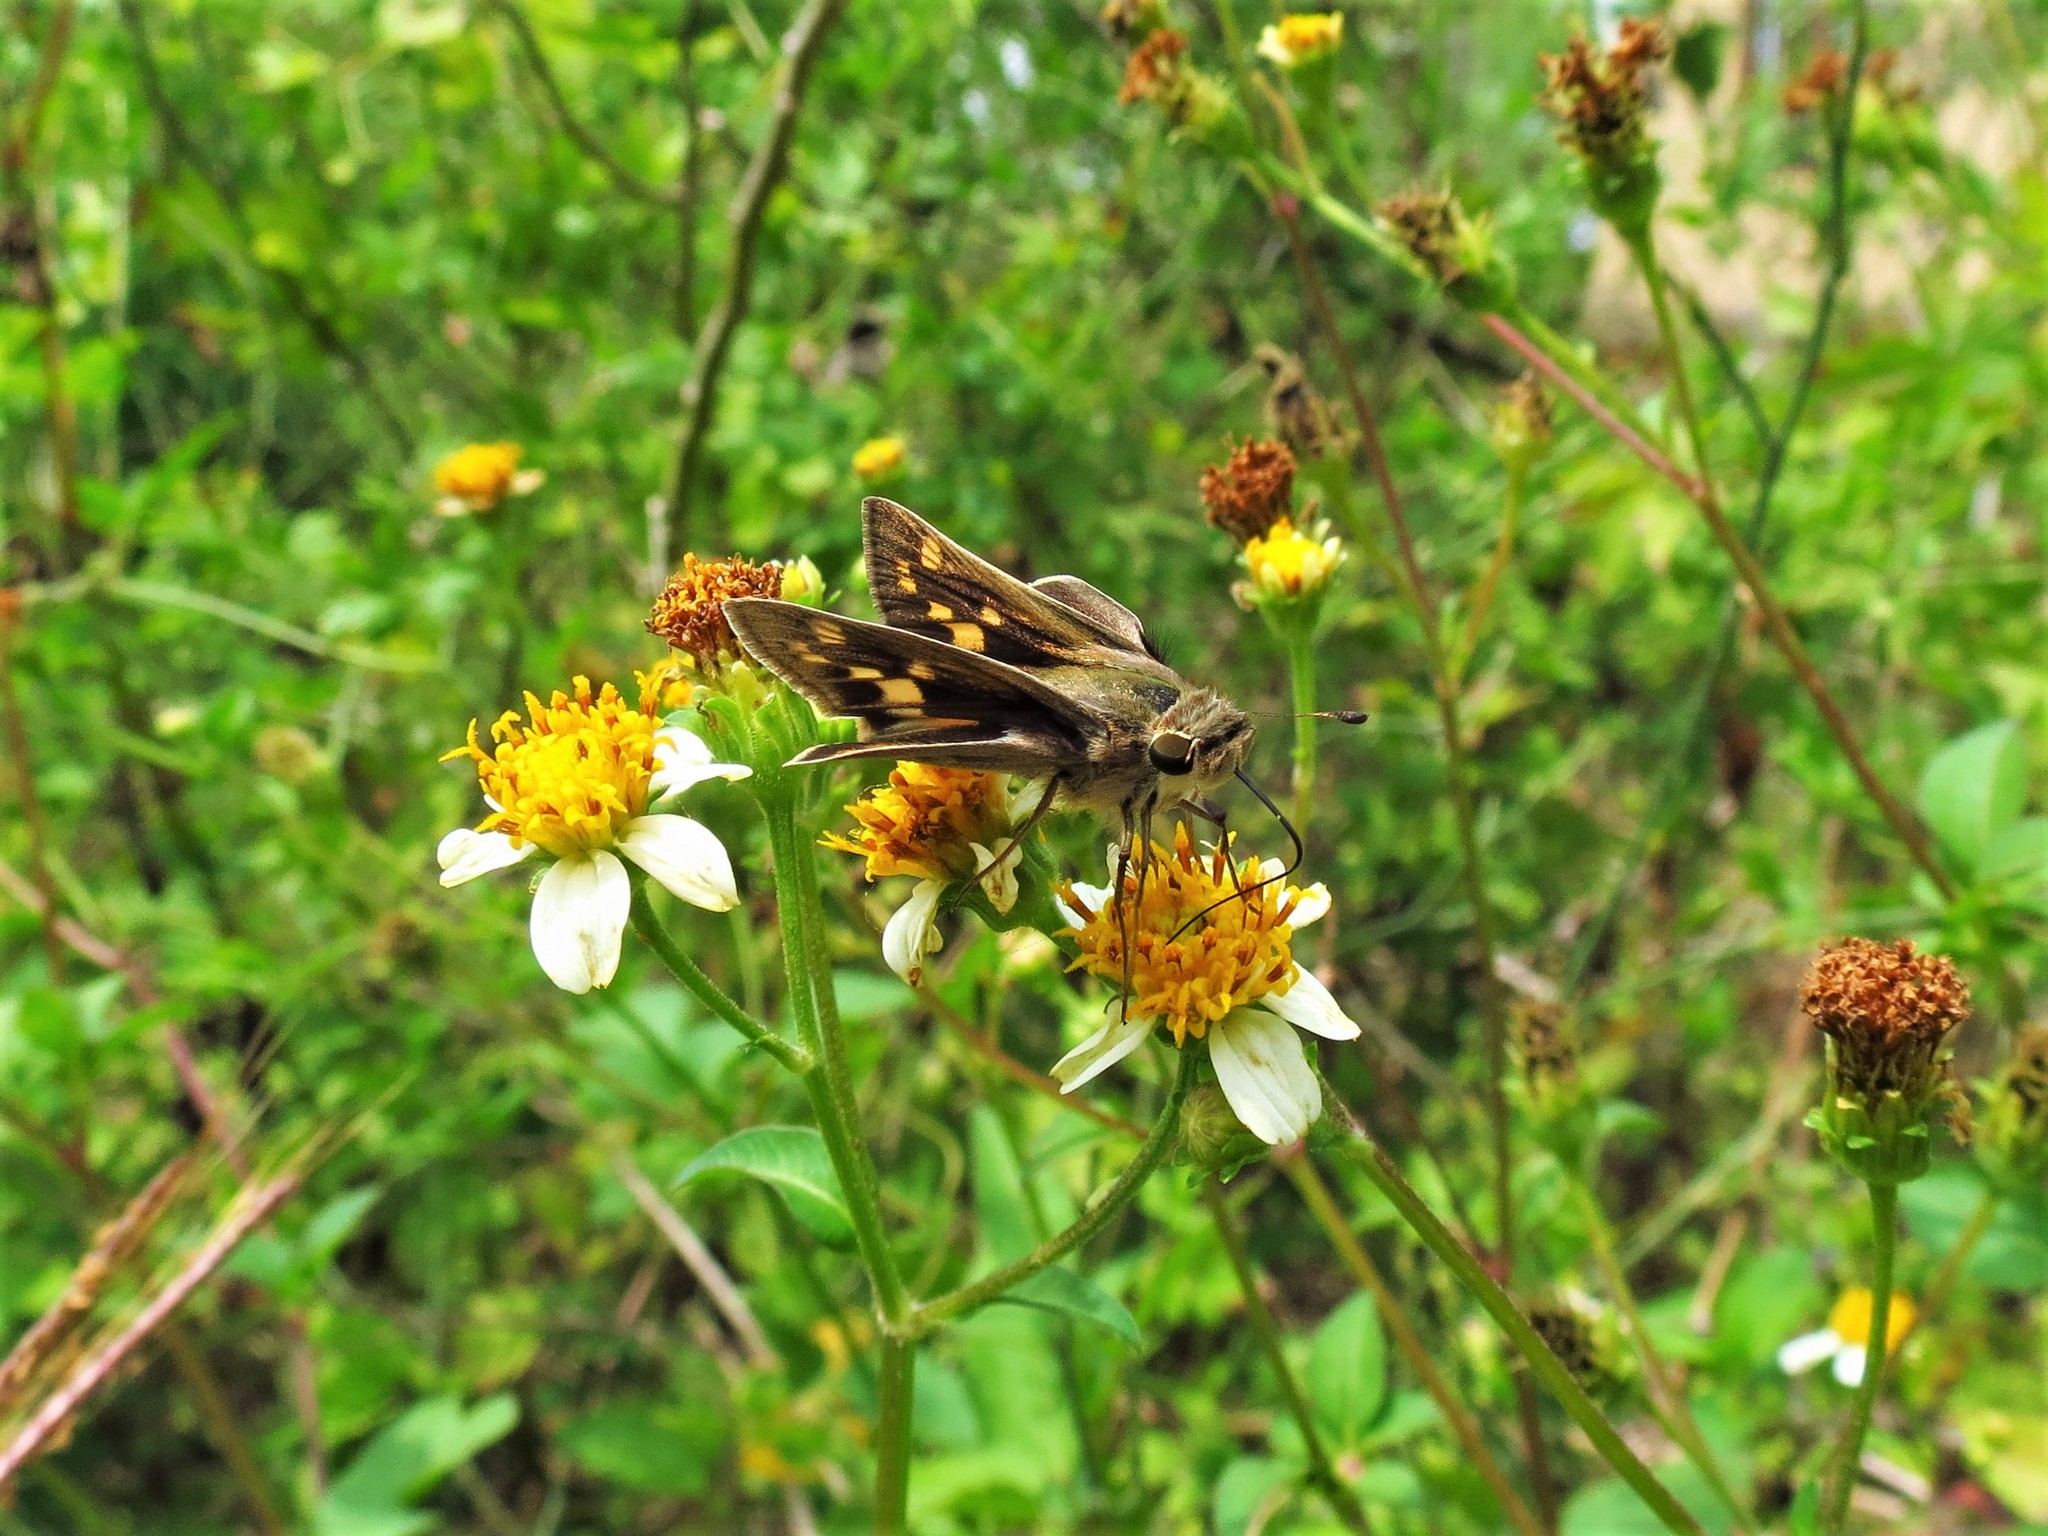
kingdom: Animalia
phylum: Arthropoda
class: Insecta
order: Lepidoptera
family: Hesperiidae
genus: Hylephila
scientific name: Hylephila phyleus
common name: Fiery skipper
